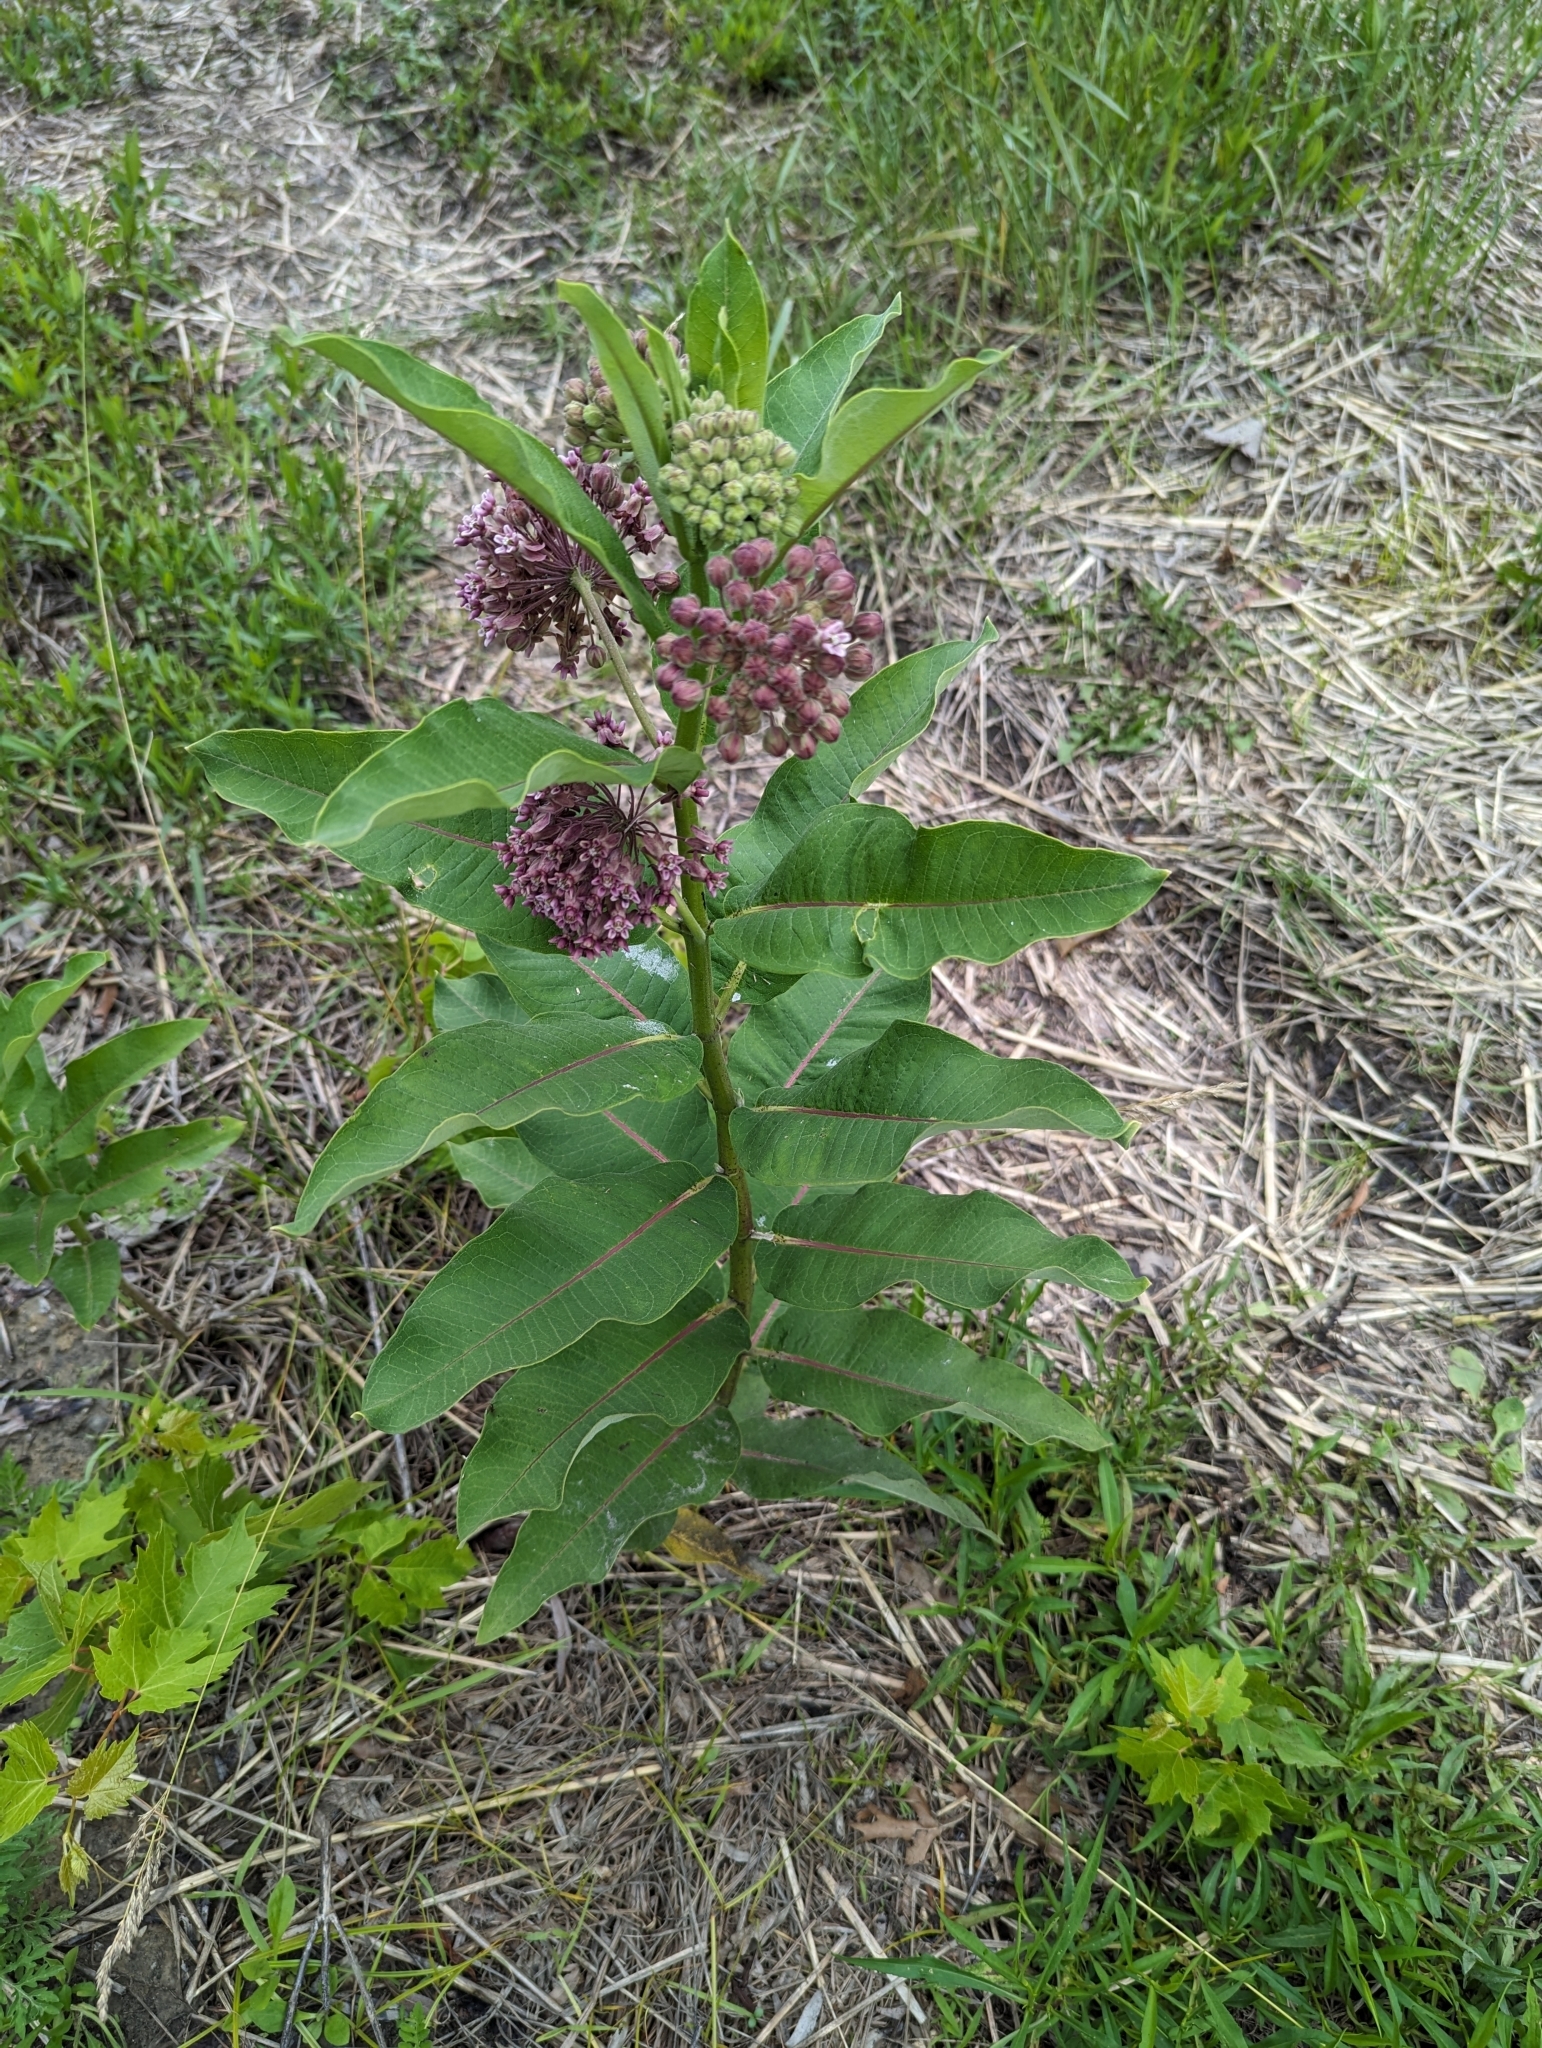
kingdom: Plantae
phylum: Tracheophyta
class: Magnoliopsida
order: Gentianales
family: Apocynaceae
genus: Asclepias
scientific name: Asclepias syriaca
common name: Common milkweed
